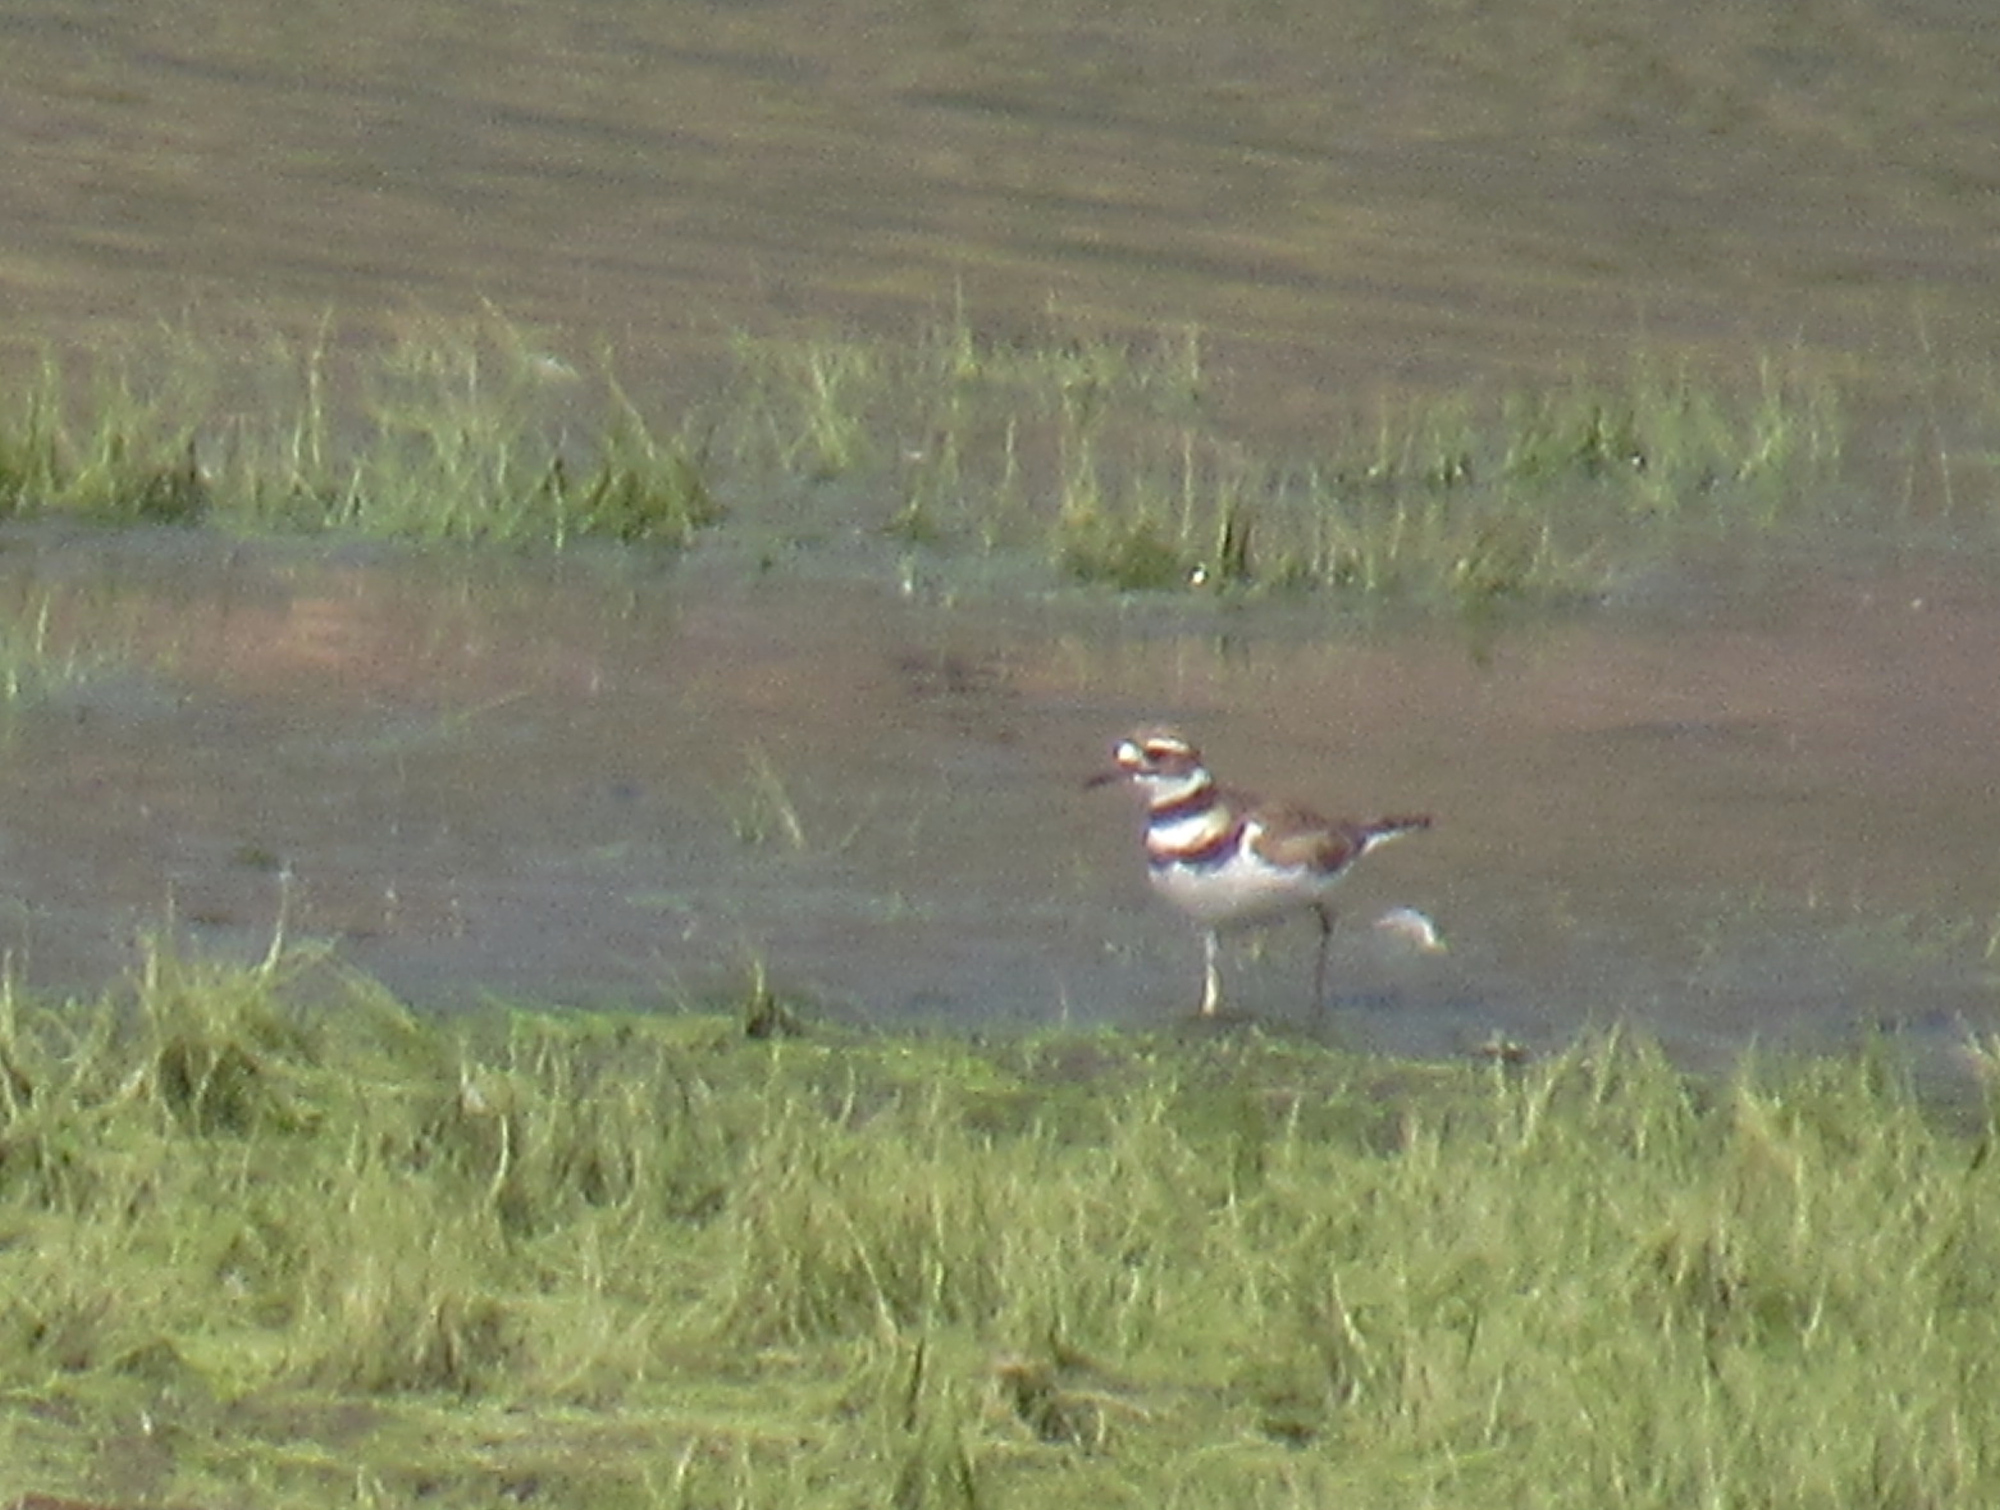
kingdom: Animalia
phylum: Chordata
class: Aves
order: Charadriiformes
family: Charadriidae
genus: Charadrius
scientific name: Charadrius vociferus
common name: Killdeer
